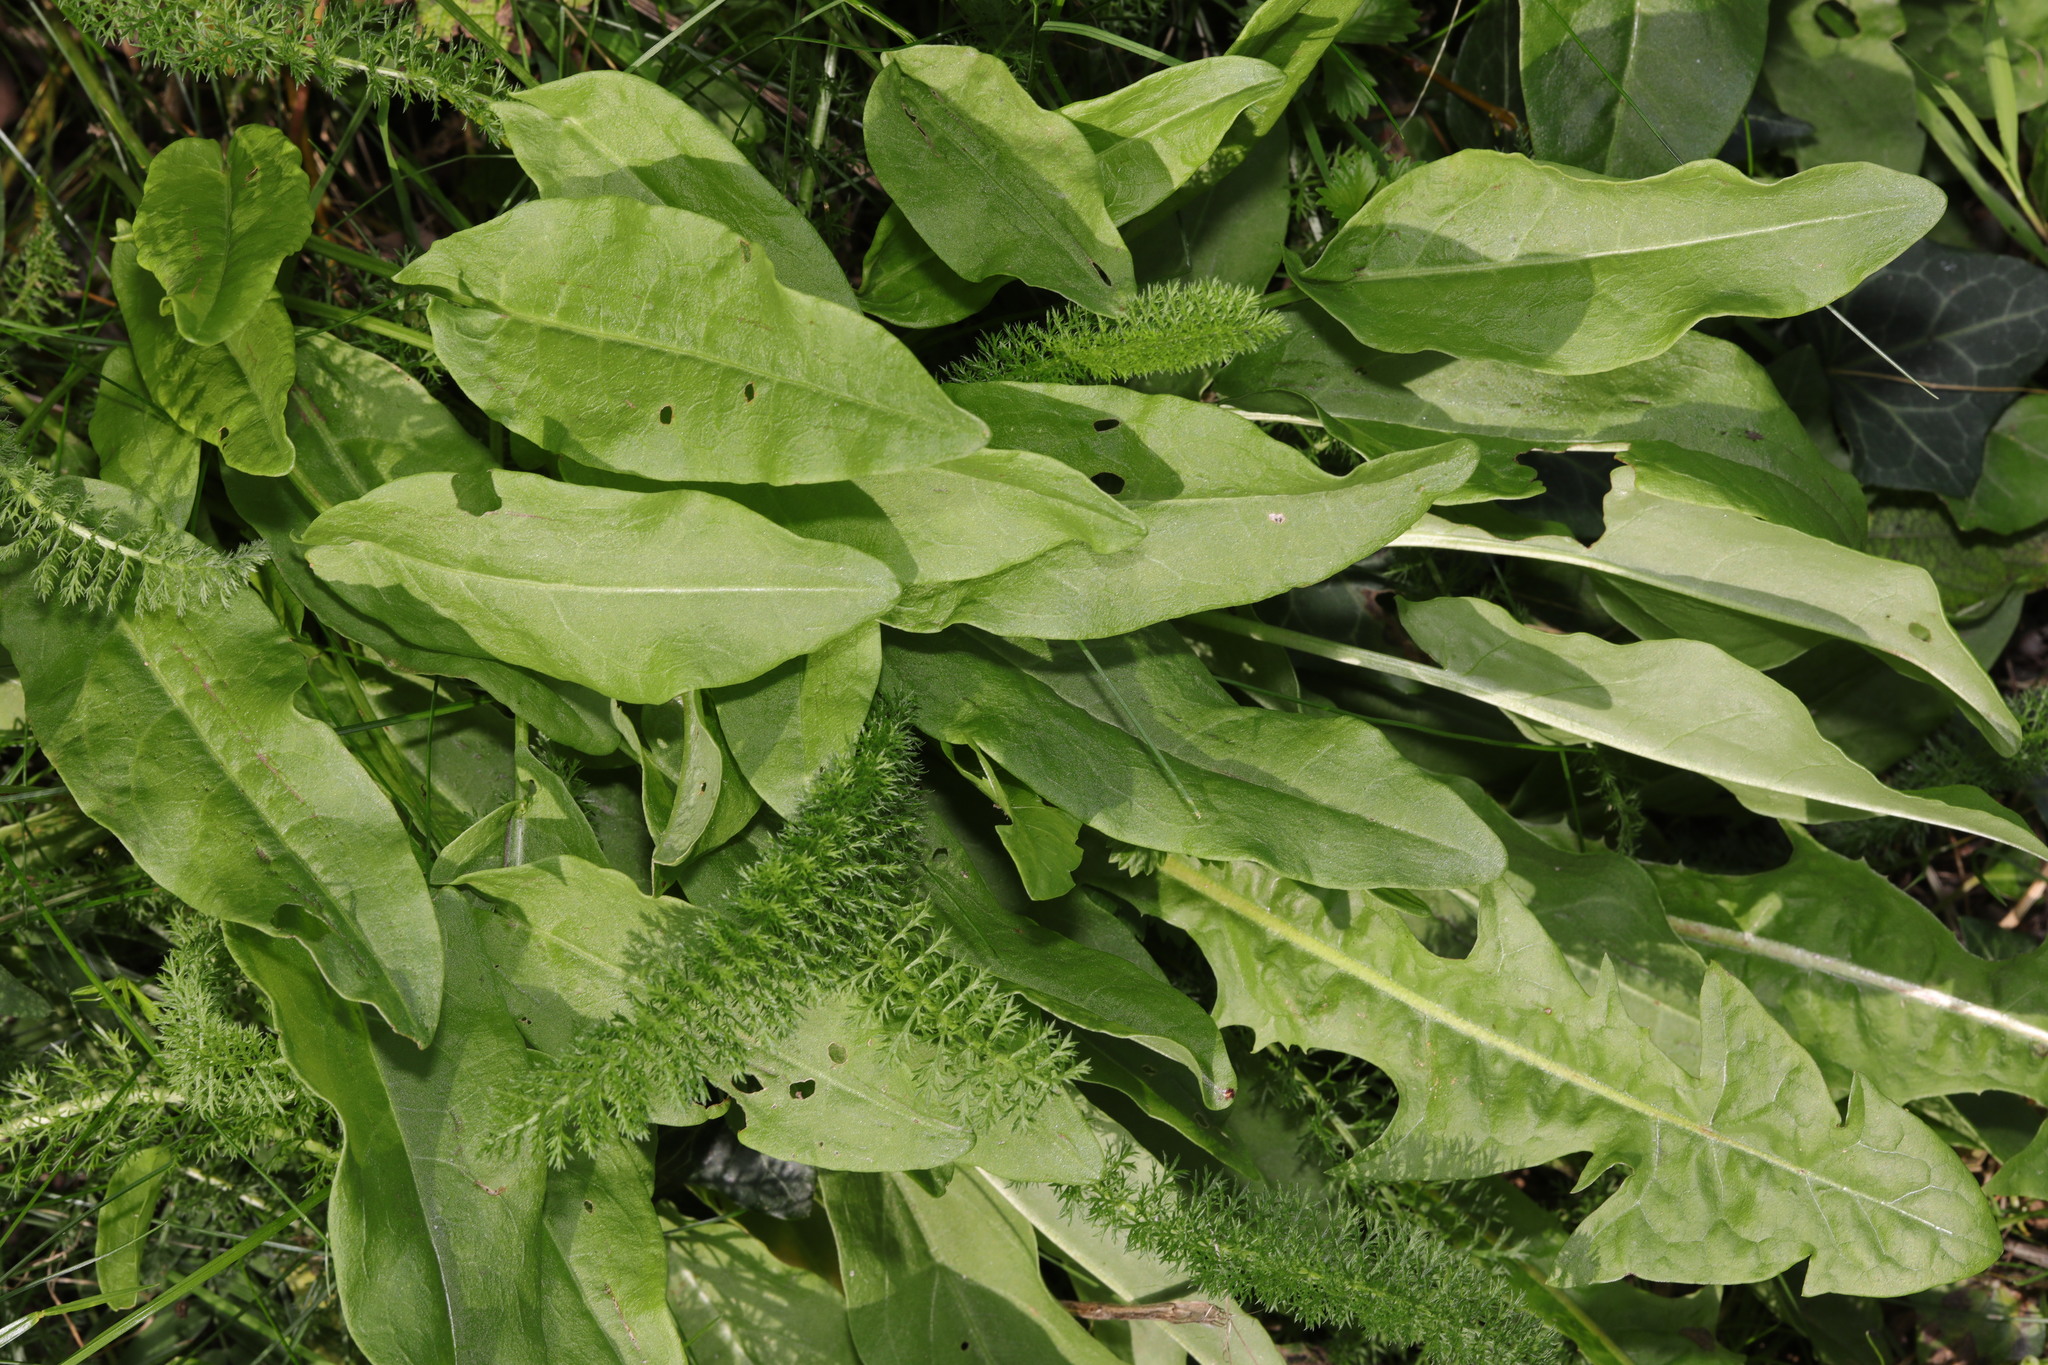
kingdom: Plantae
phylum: Tracheophyta
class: Magnoliopsida
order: Caryophyllales
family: Polygonaceae
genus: Rumex
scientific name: Rumex acetosa
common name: Garden sorrel
